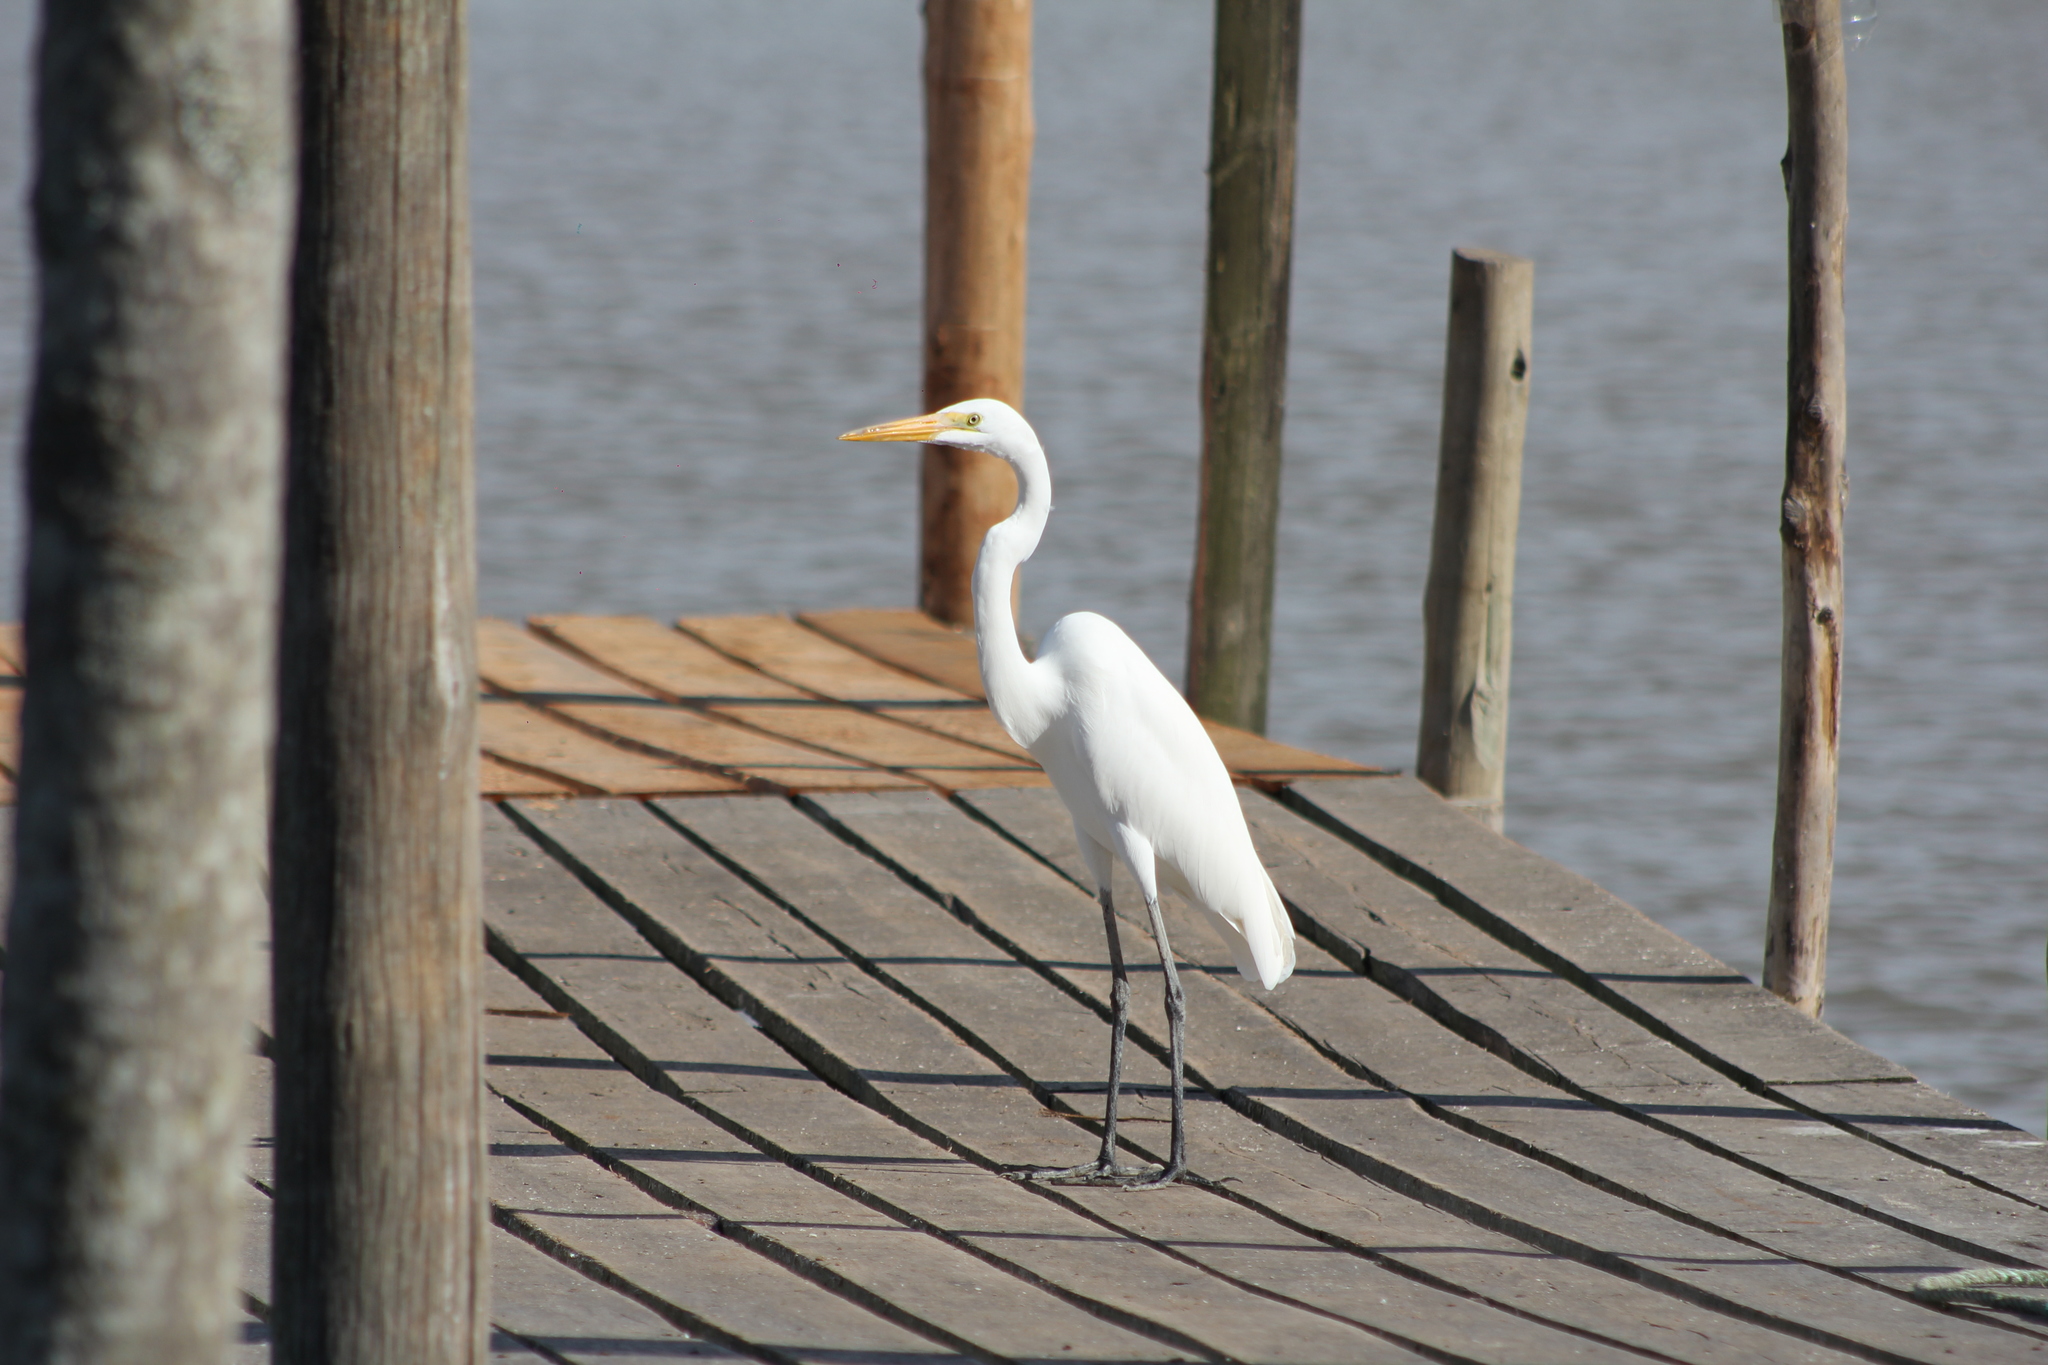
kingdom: Animalia
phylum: Chordata
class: Aves
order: Pelecaniformes
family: Ardeidae
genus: Ardea
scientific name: Ardea alba
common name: Great egret
